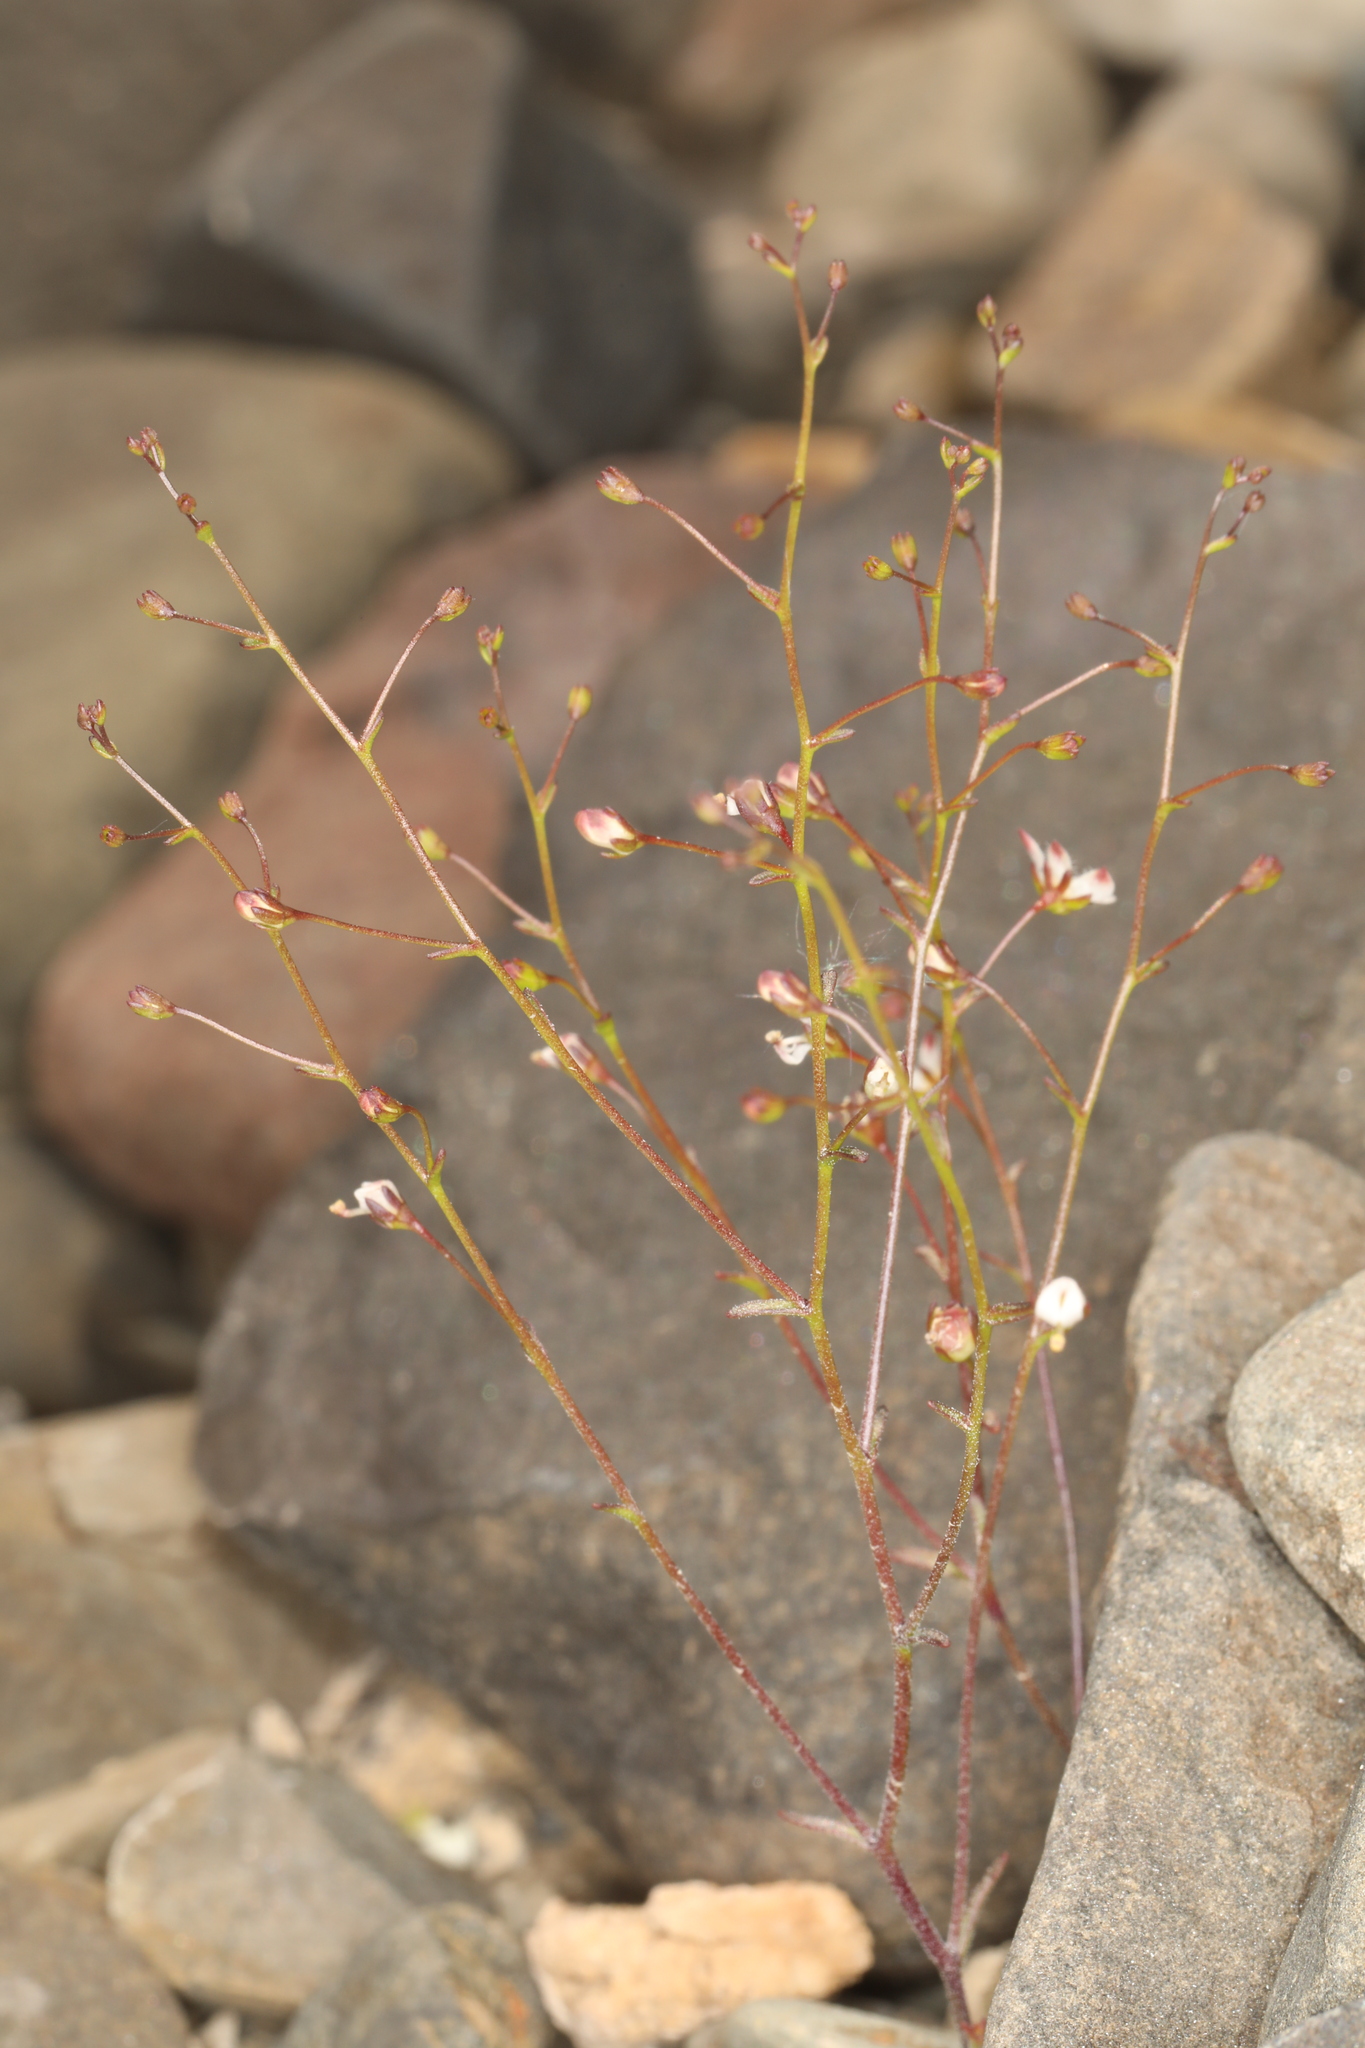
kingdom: Plantae
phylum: Tracheophyta
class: Magnoliopsida
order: Asterales
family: Campanulaceae
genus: Nemacladus
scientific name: Nemacladus orientalis
